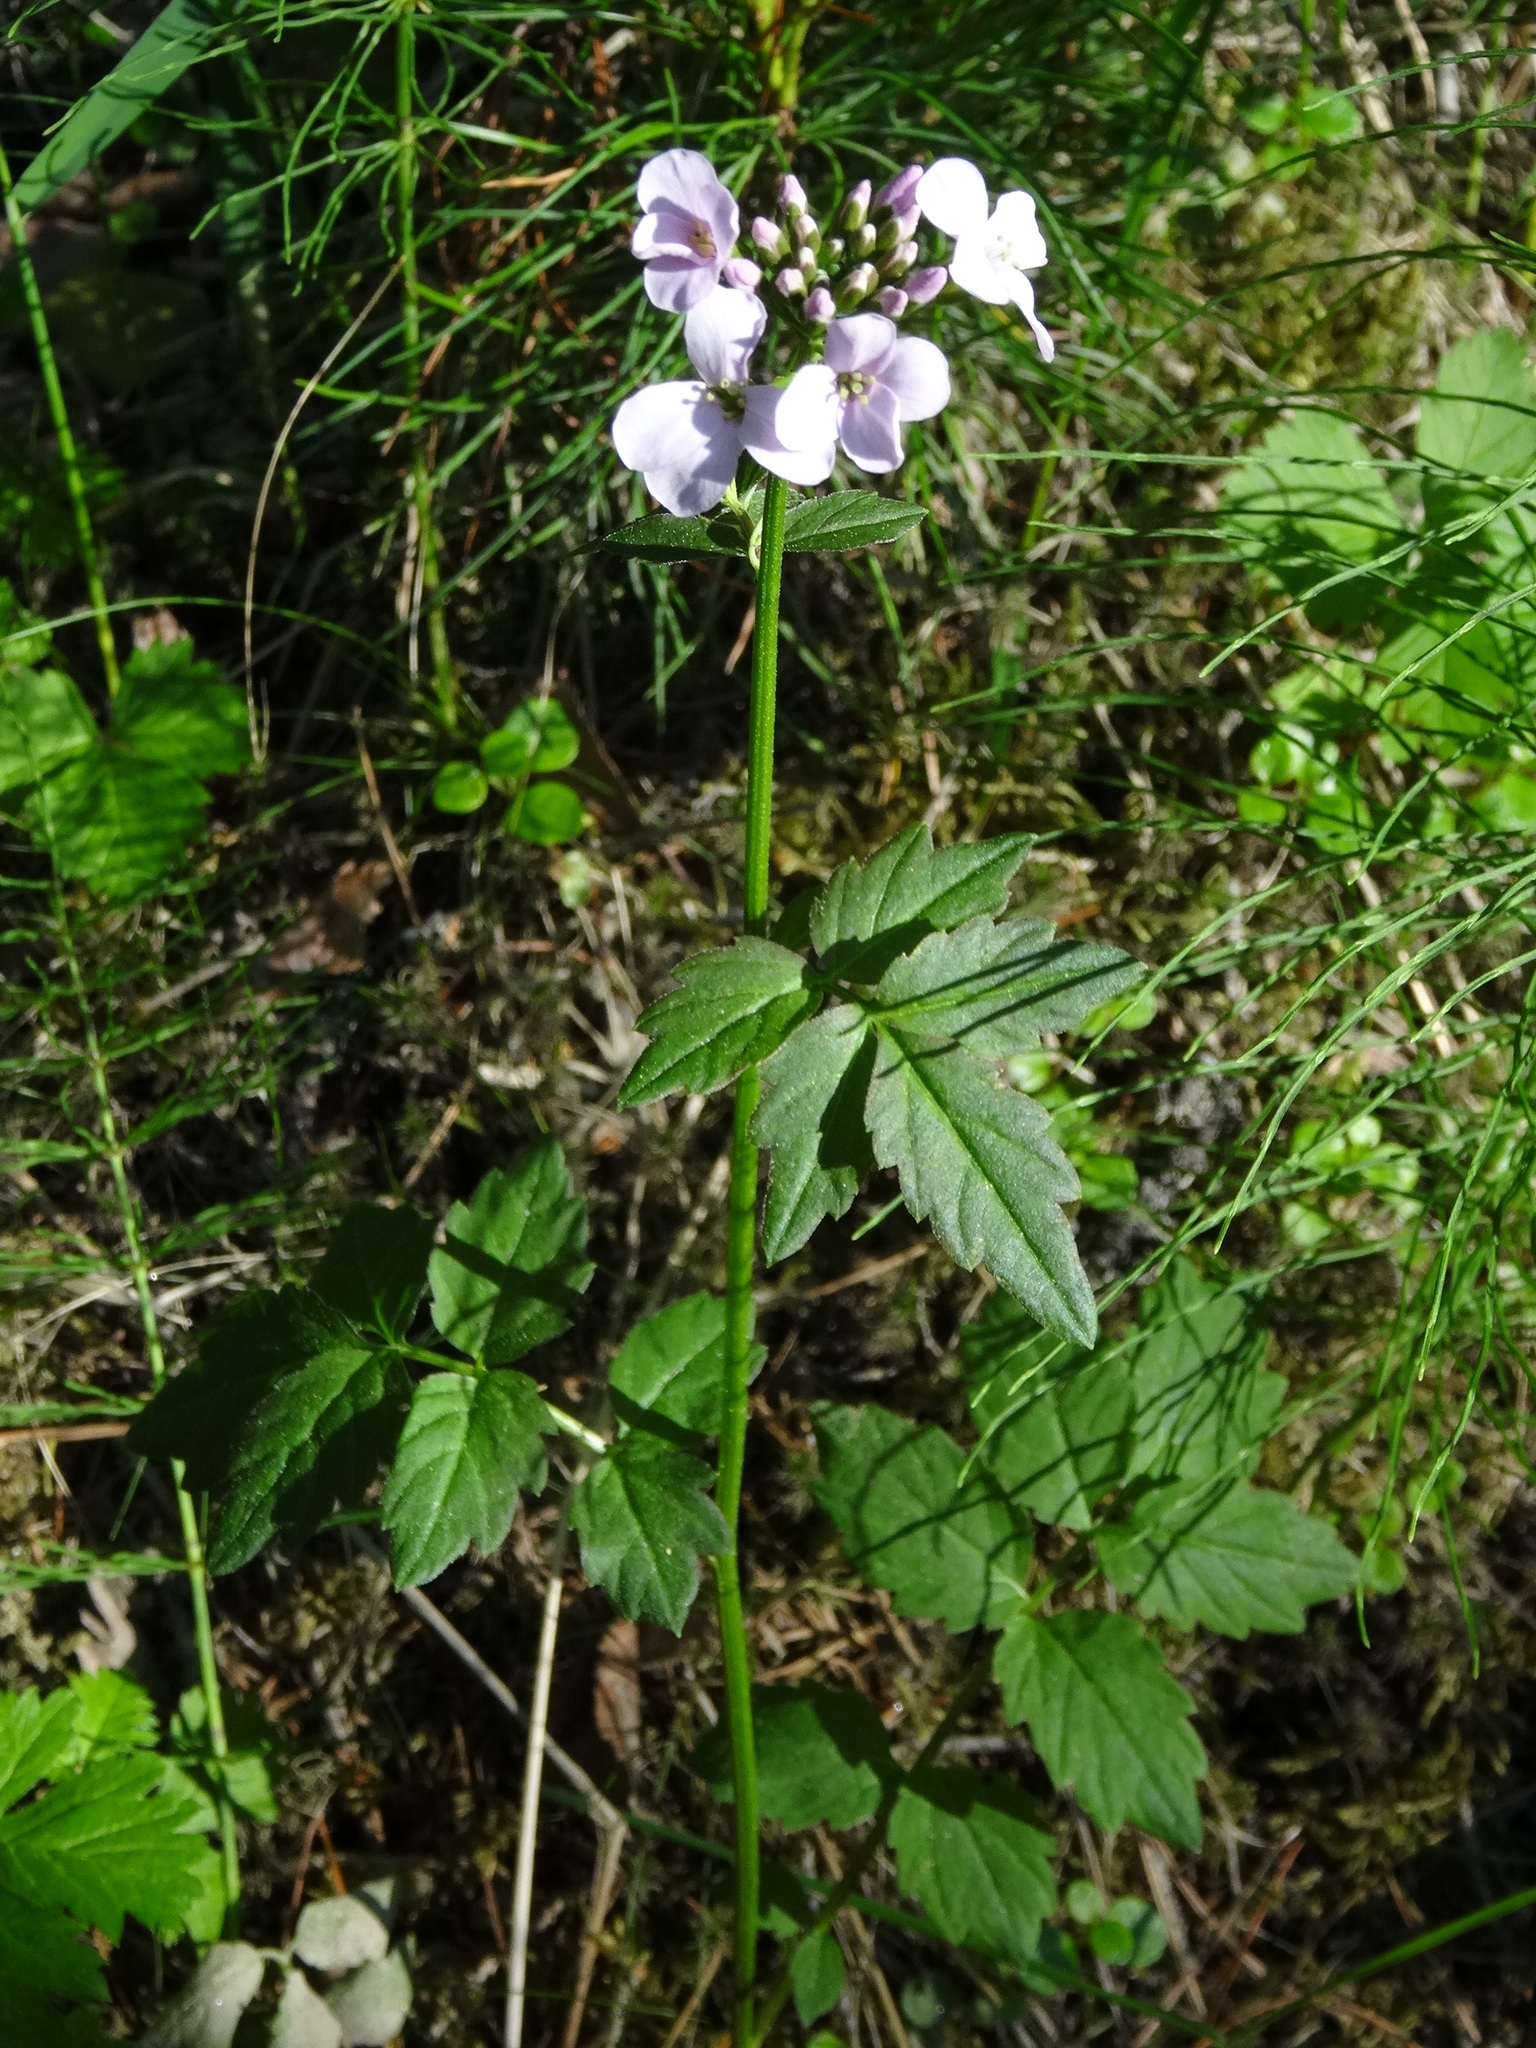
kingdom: Plantae
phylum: Tracheophyta
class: Magnoliopsida
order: Brassicales
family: Brassicaceae
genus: Cardamine
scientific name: Cardamine macrophylla
